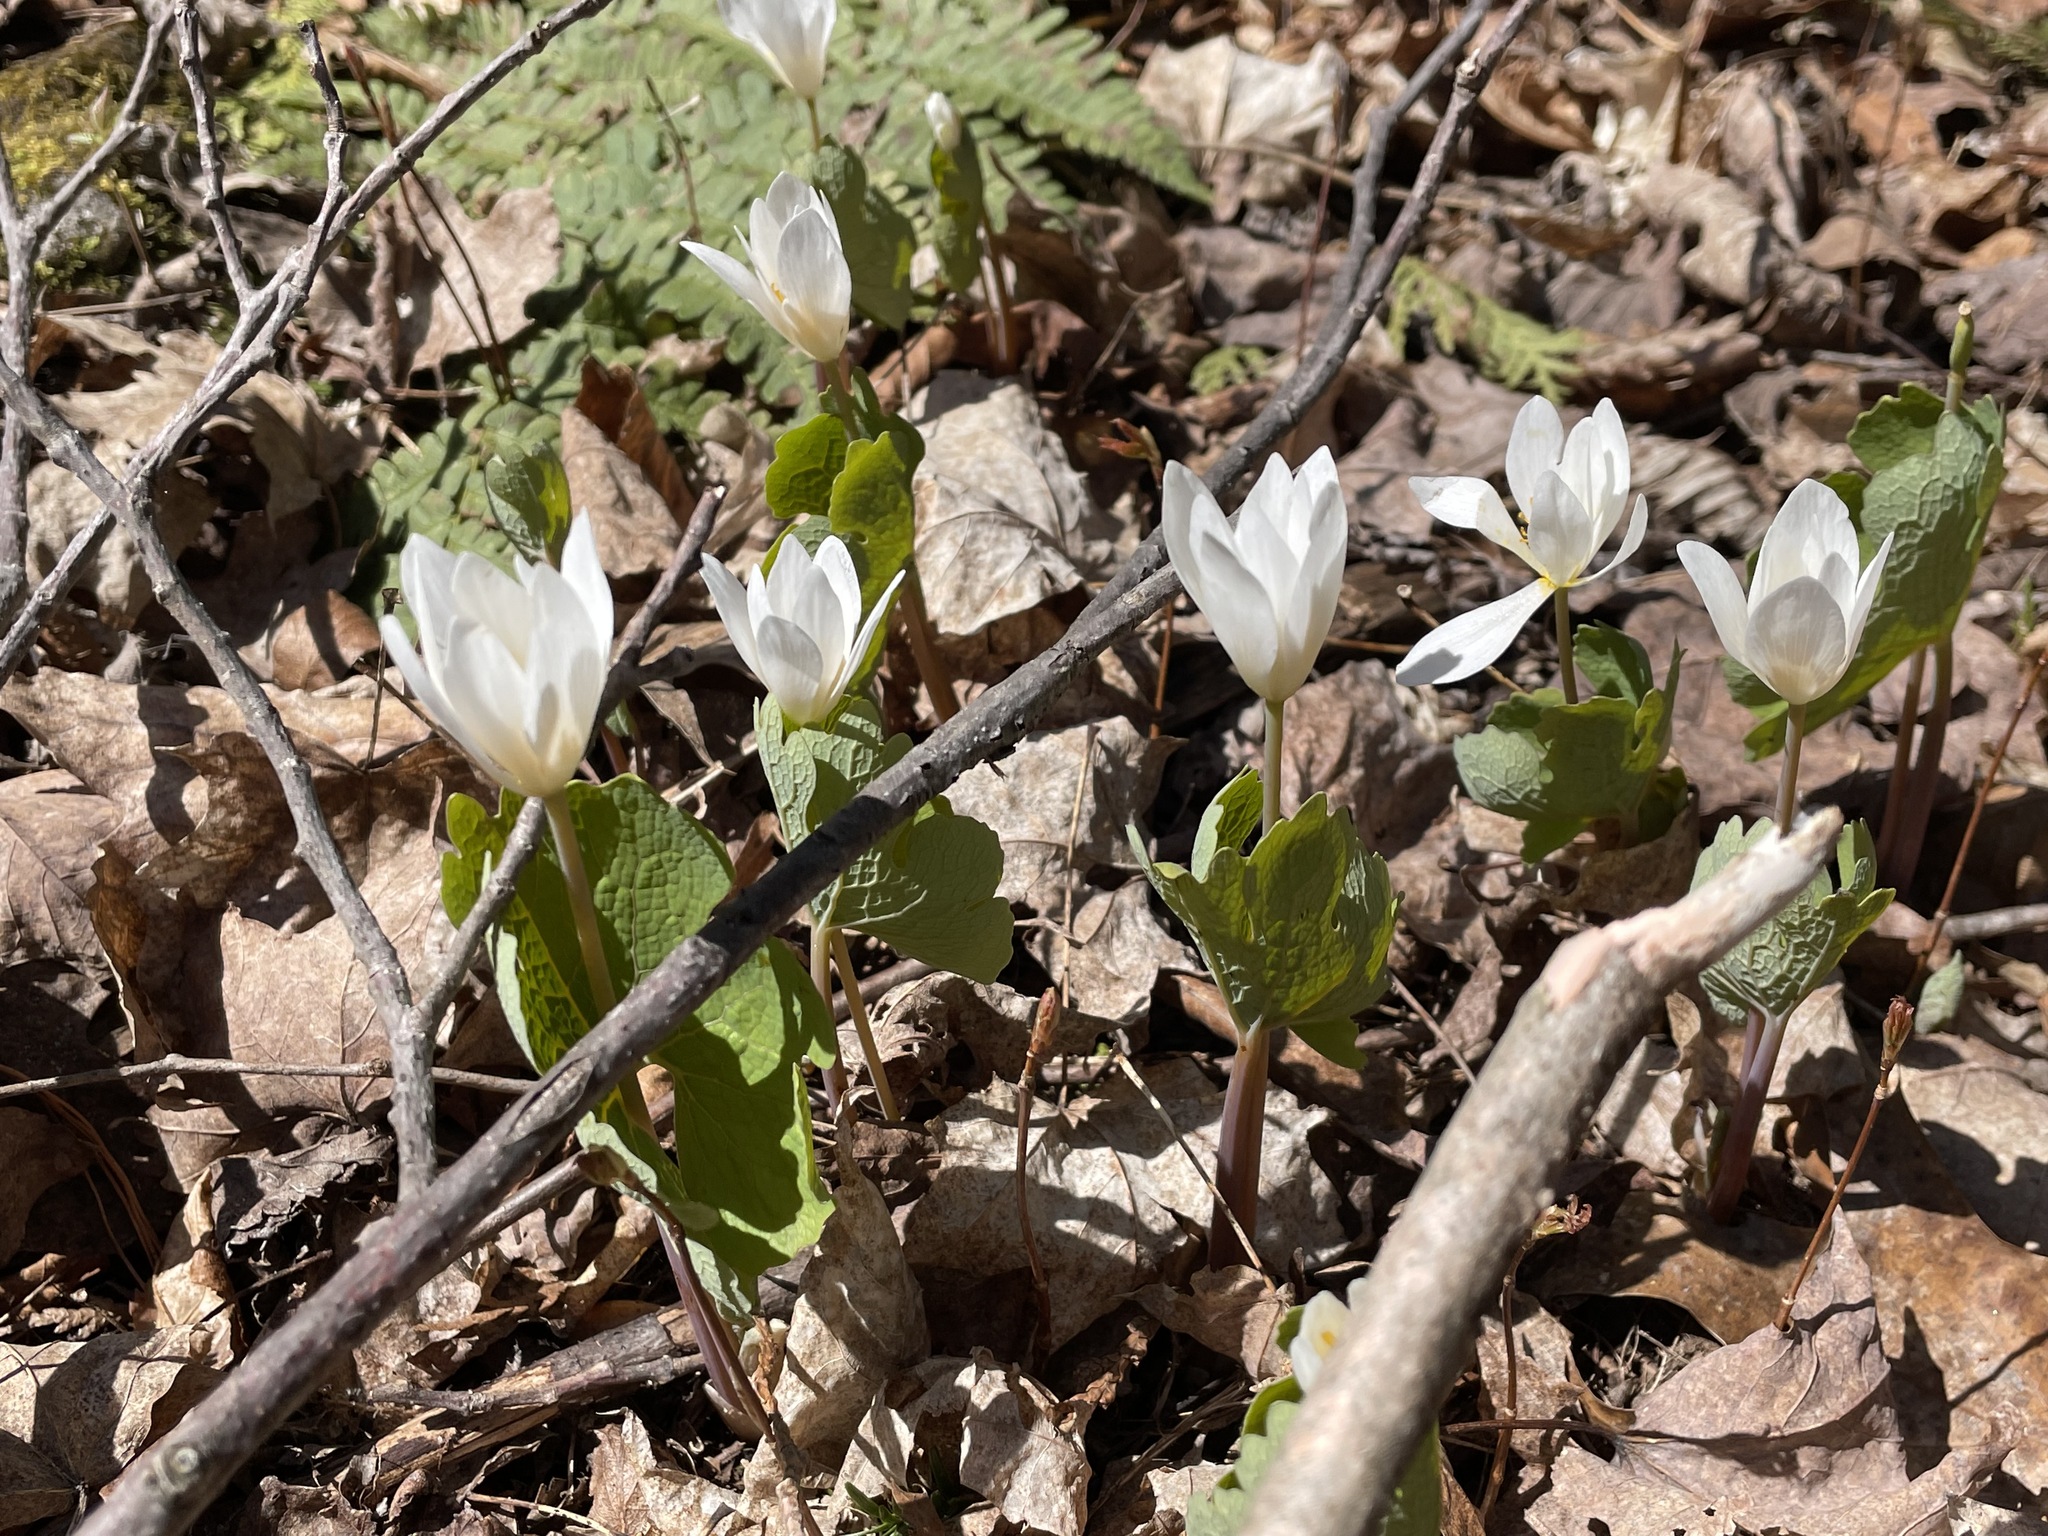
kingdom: Plantae
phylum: Tracheophyta
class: Magnoliopsida
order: Ranunculales
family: Papaveraceae
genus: Sanguinaria
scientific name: Sanguinaria canadensis
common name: Bloodroot
